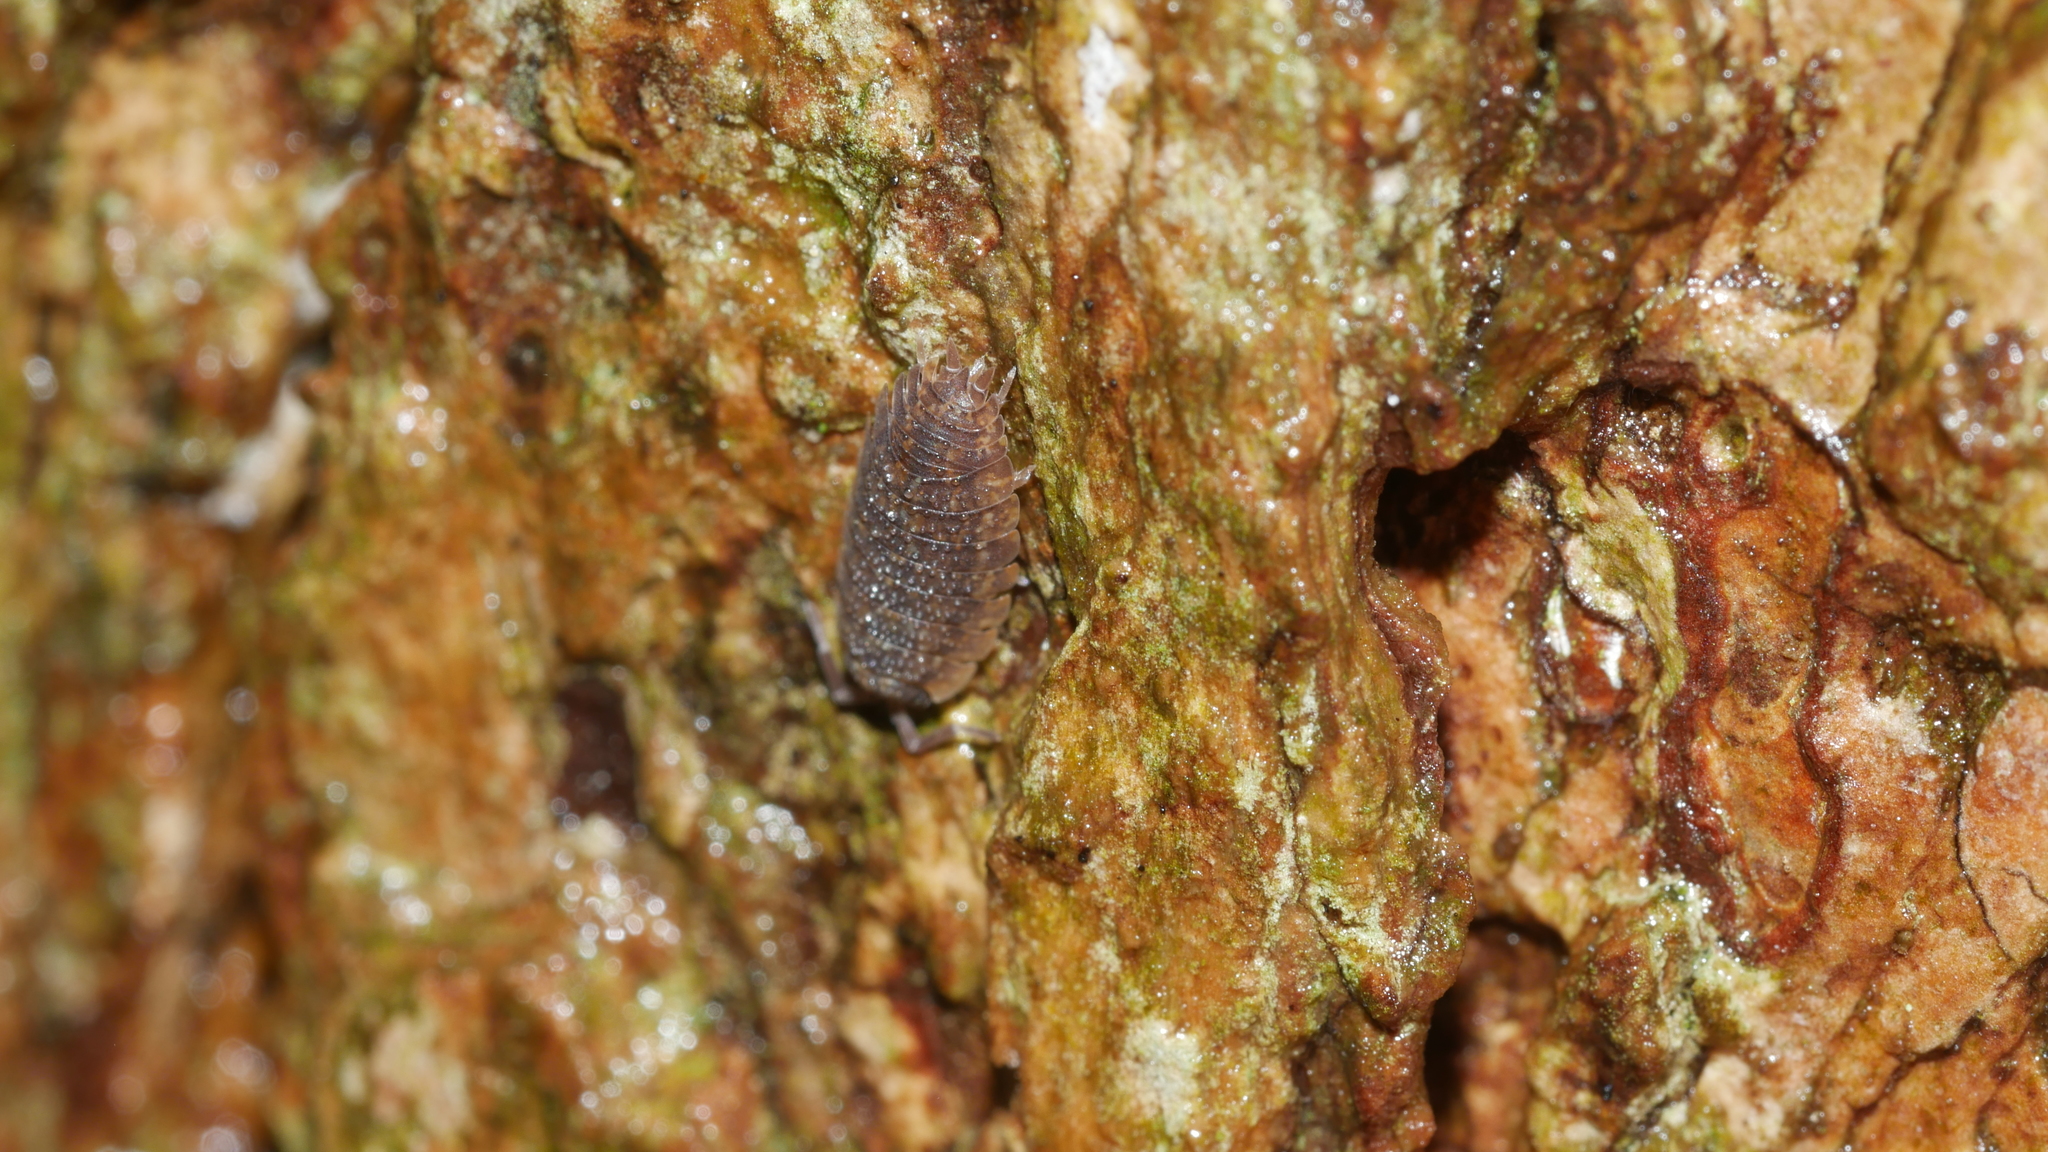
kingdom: Animalia
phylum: Arthropoda
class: Malacostraca
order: Isopoda
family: Porcellionidae
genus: Porcellio
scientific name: Porcellio scaber
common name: Common rough woodlouse
